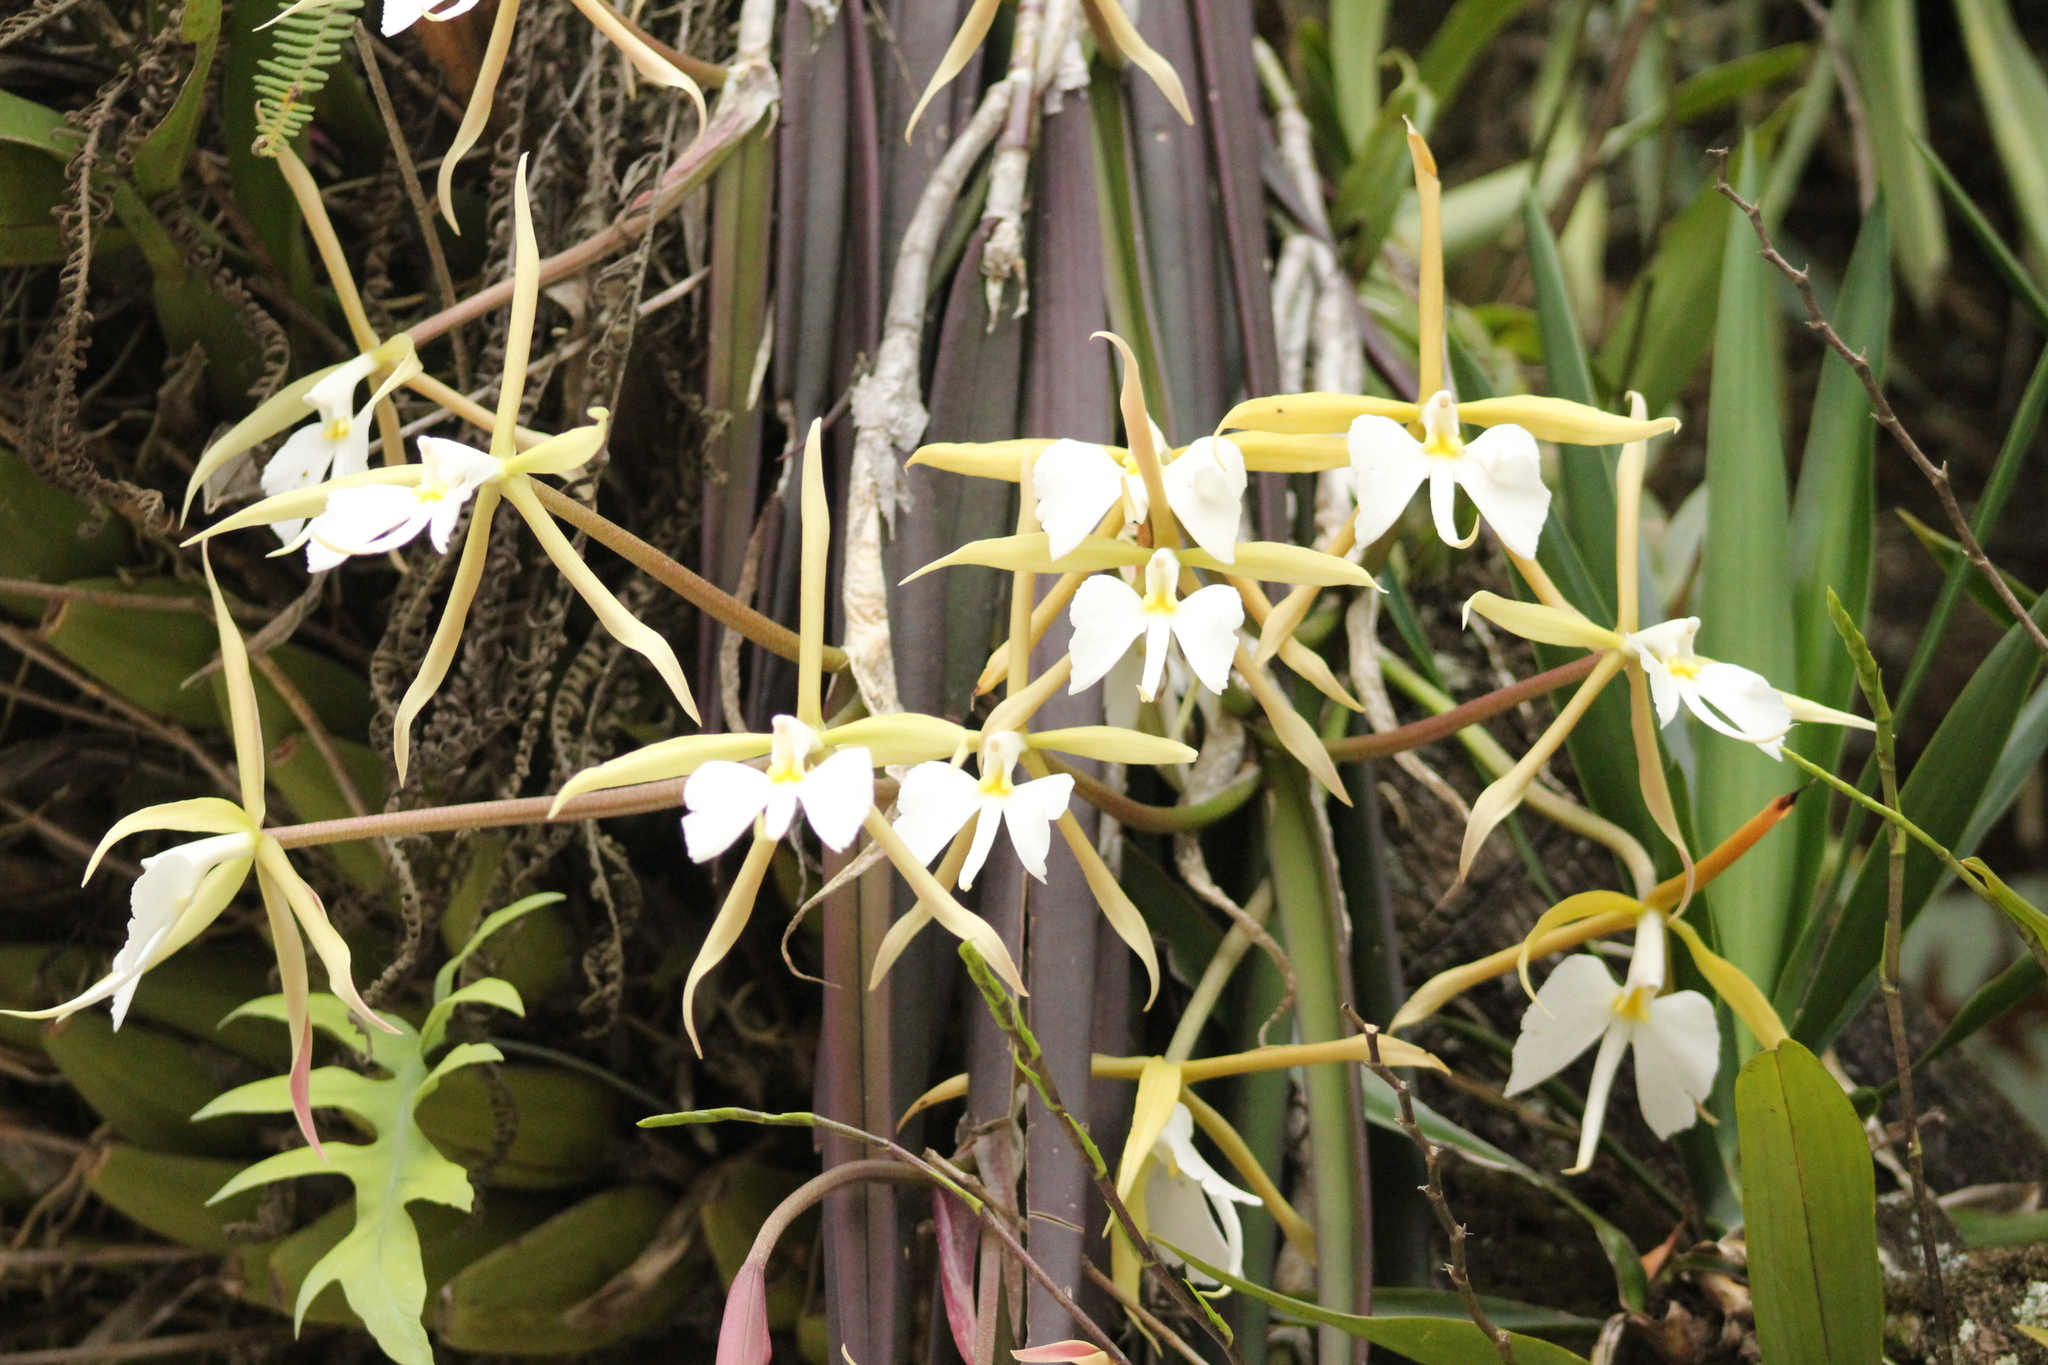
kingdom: Plantae
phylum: Tracheophyta
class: Liliopsida
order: Asparagales
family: Orchidaceae
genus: Epidendrum
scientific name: Epidendrum parkinsonianum
